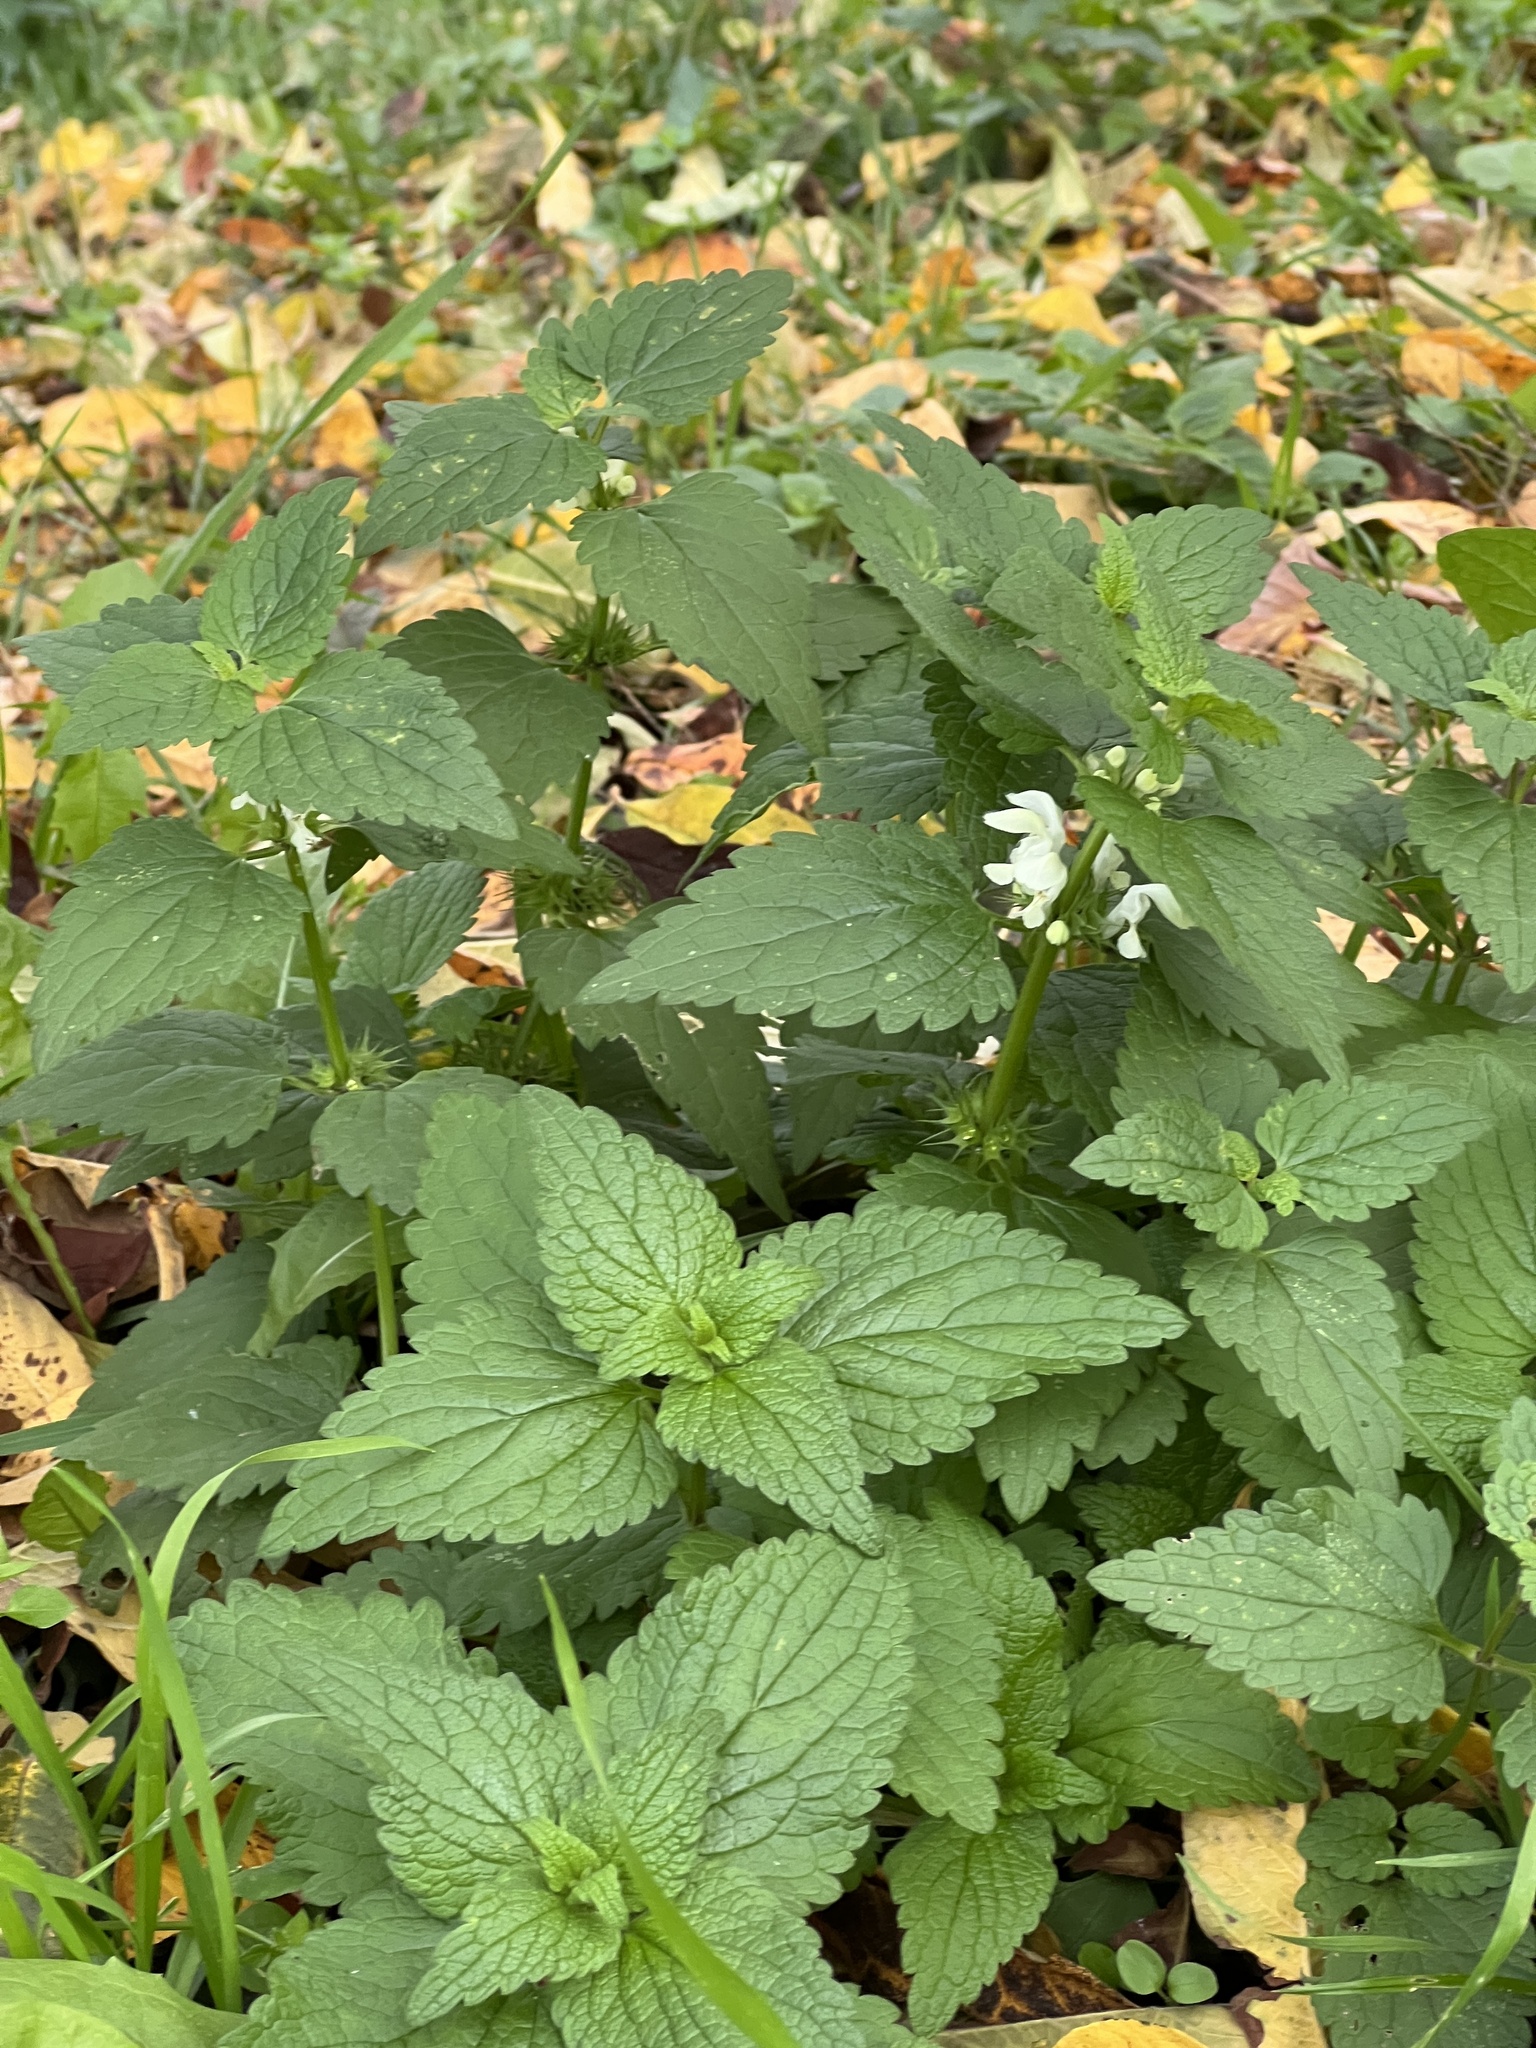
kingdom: Plantae
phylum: Tracheophyta
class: Magnoliopsida
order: Lamiales
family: Lamiaceae
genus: Lamium
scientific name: Lamium album
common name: White dead-nettle
